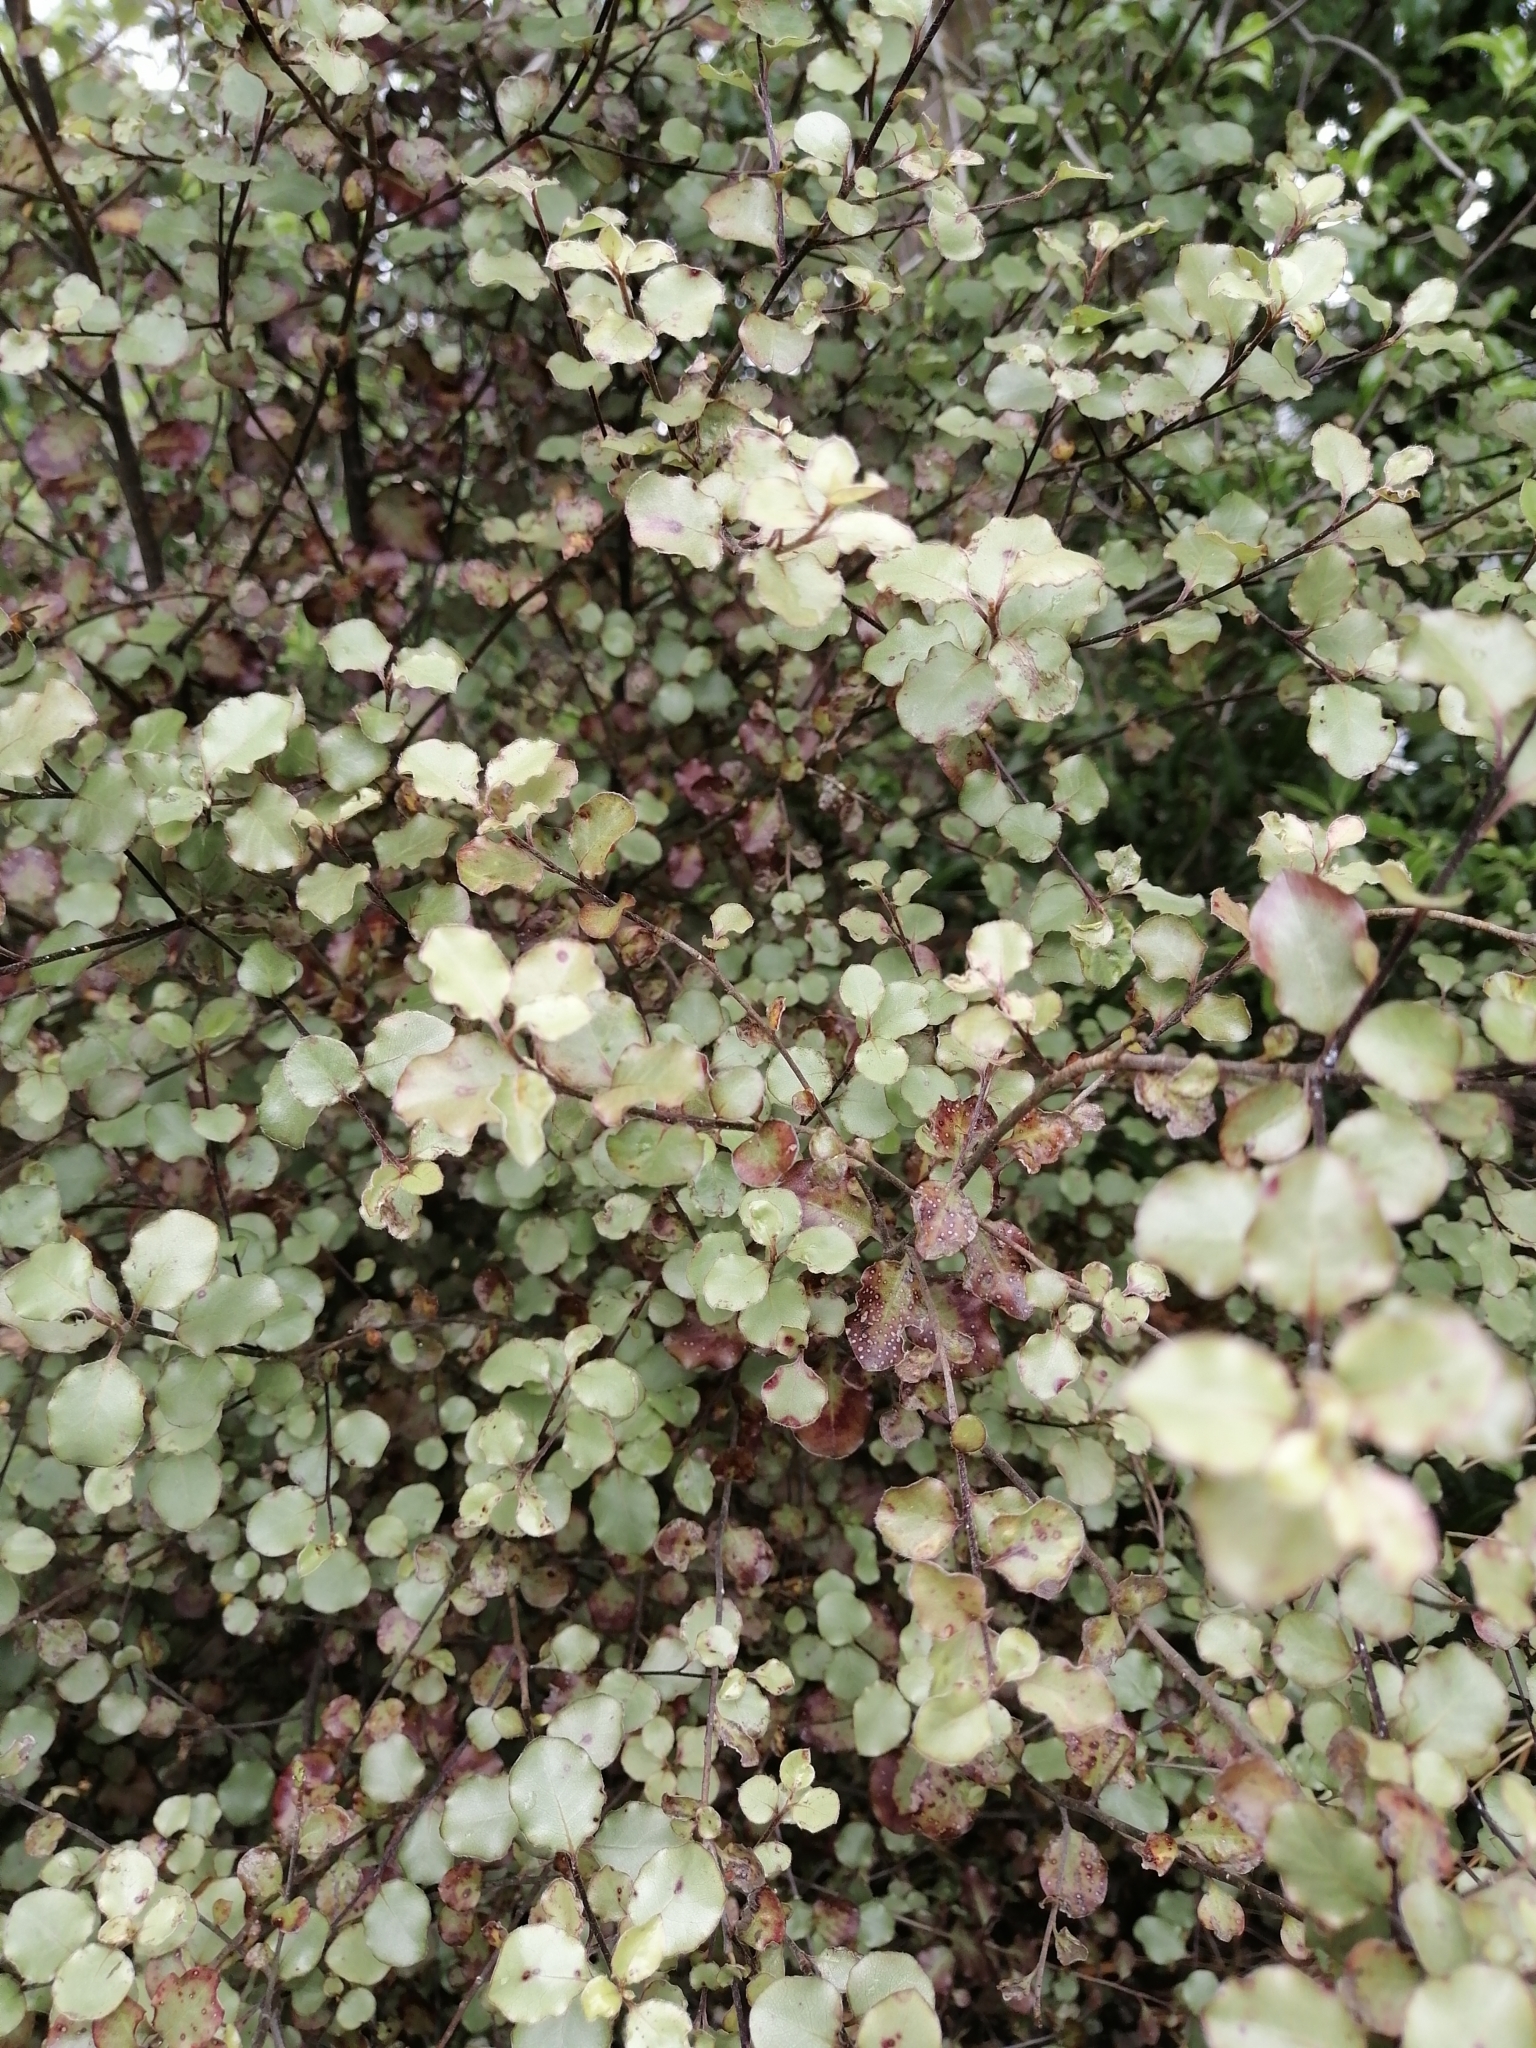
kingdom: Plantae
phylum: Tracheophyta
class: Magnoliopsida
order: Apiales
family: Pittosporaceae
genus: Pittosporum
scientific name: Pittosporum tenuifolium
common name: Kohuhu
